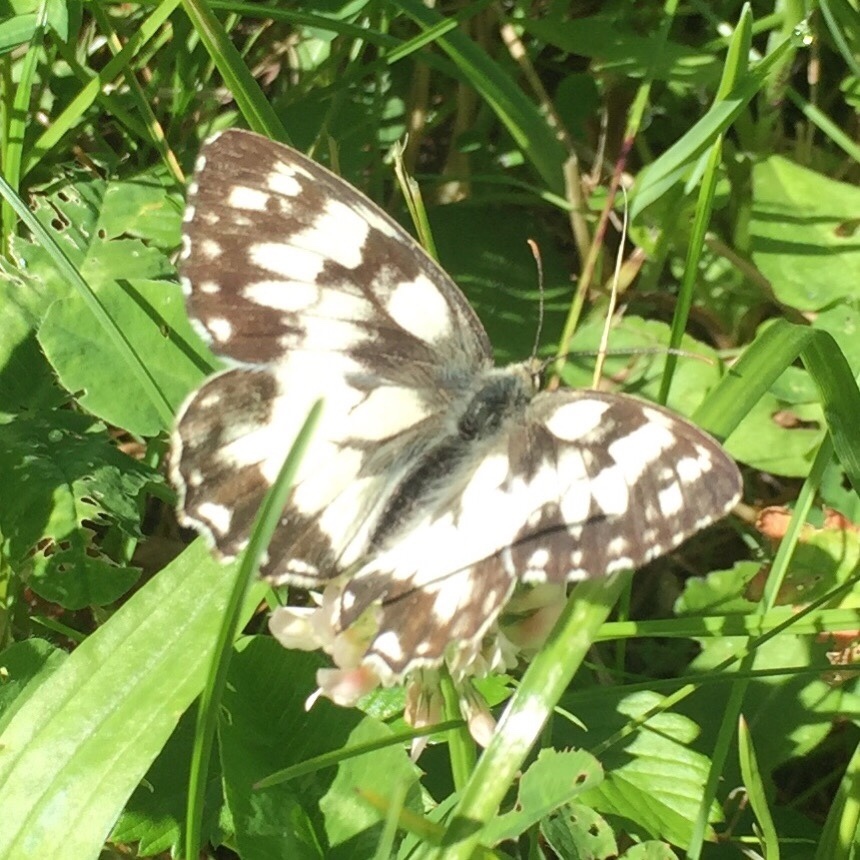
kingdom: Animalia
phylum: Arthropoda
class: Insecta
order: Lepidoptera
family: Nymphalidae
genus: Melanargia
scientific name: Melanargia galathea
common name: Marbled white
